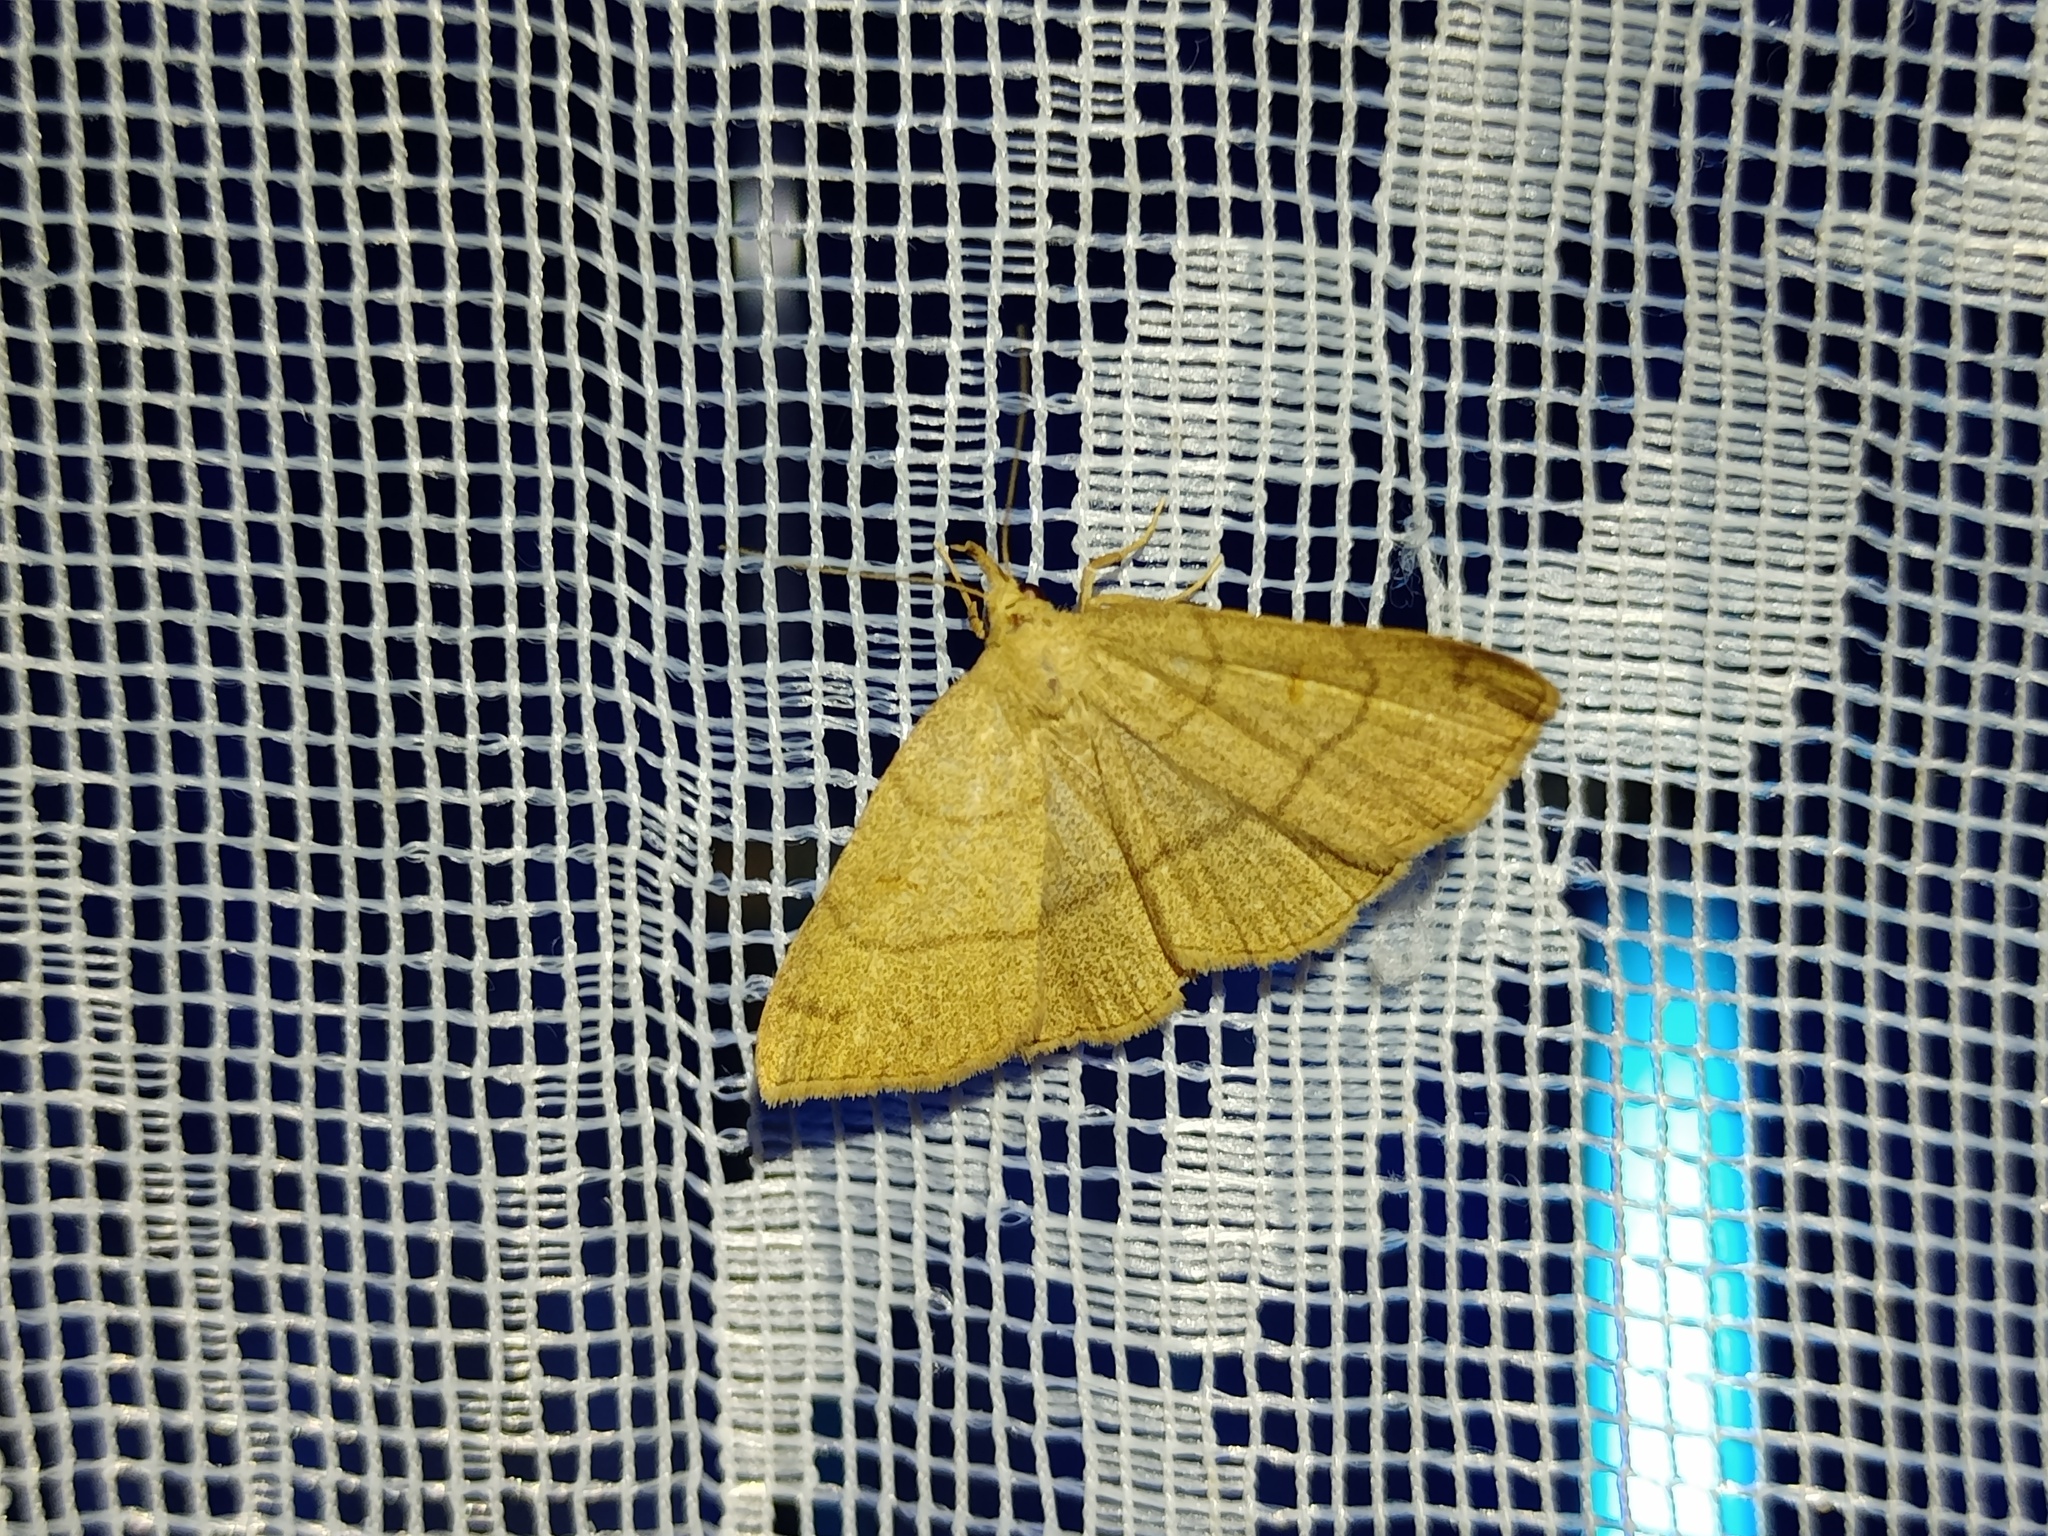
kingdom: Animalia
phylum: Arthropoda
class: Insecta
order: Lepidoptera
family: Erebidae
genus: Paracolax
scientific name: Paracolax tristalis
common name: Clay fan-foot
